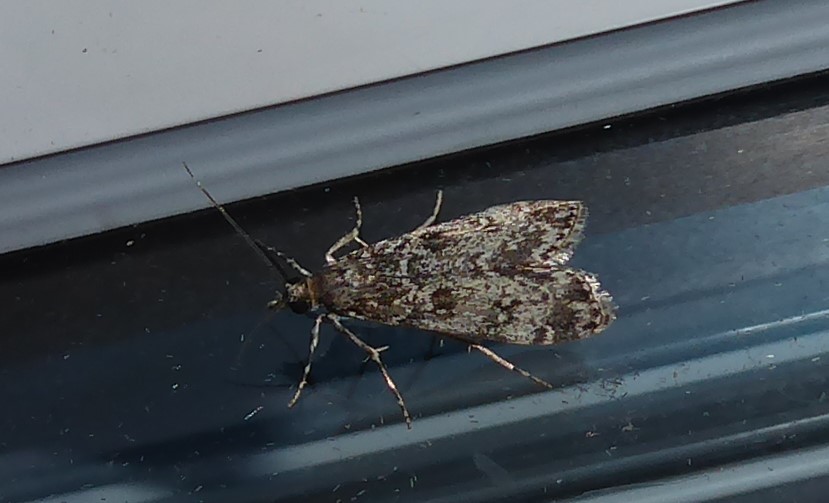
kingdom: Animalia
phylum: Arthropoda
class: Insecta
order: Lepidoptera
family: Crambidae
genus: Eudonia
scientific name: Eudonia philerga
